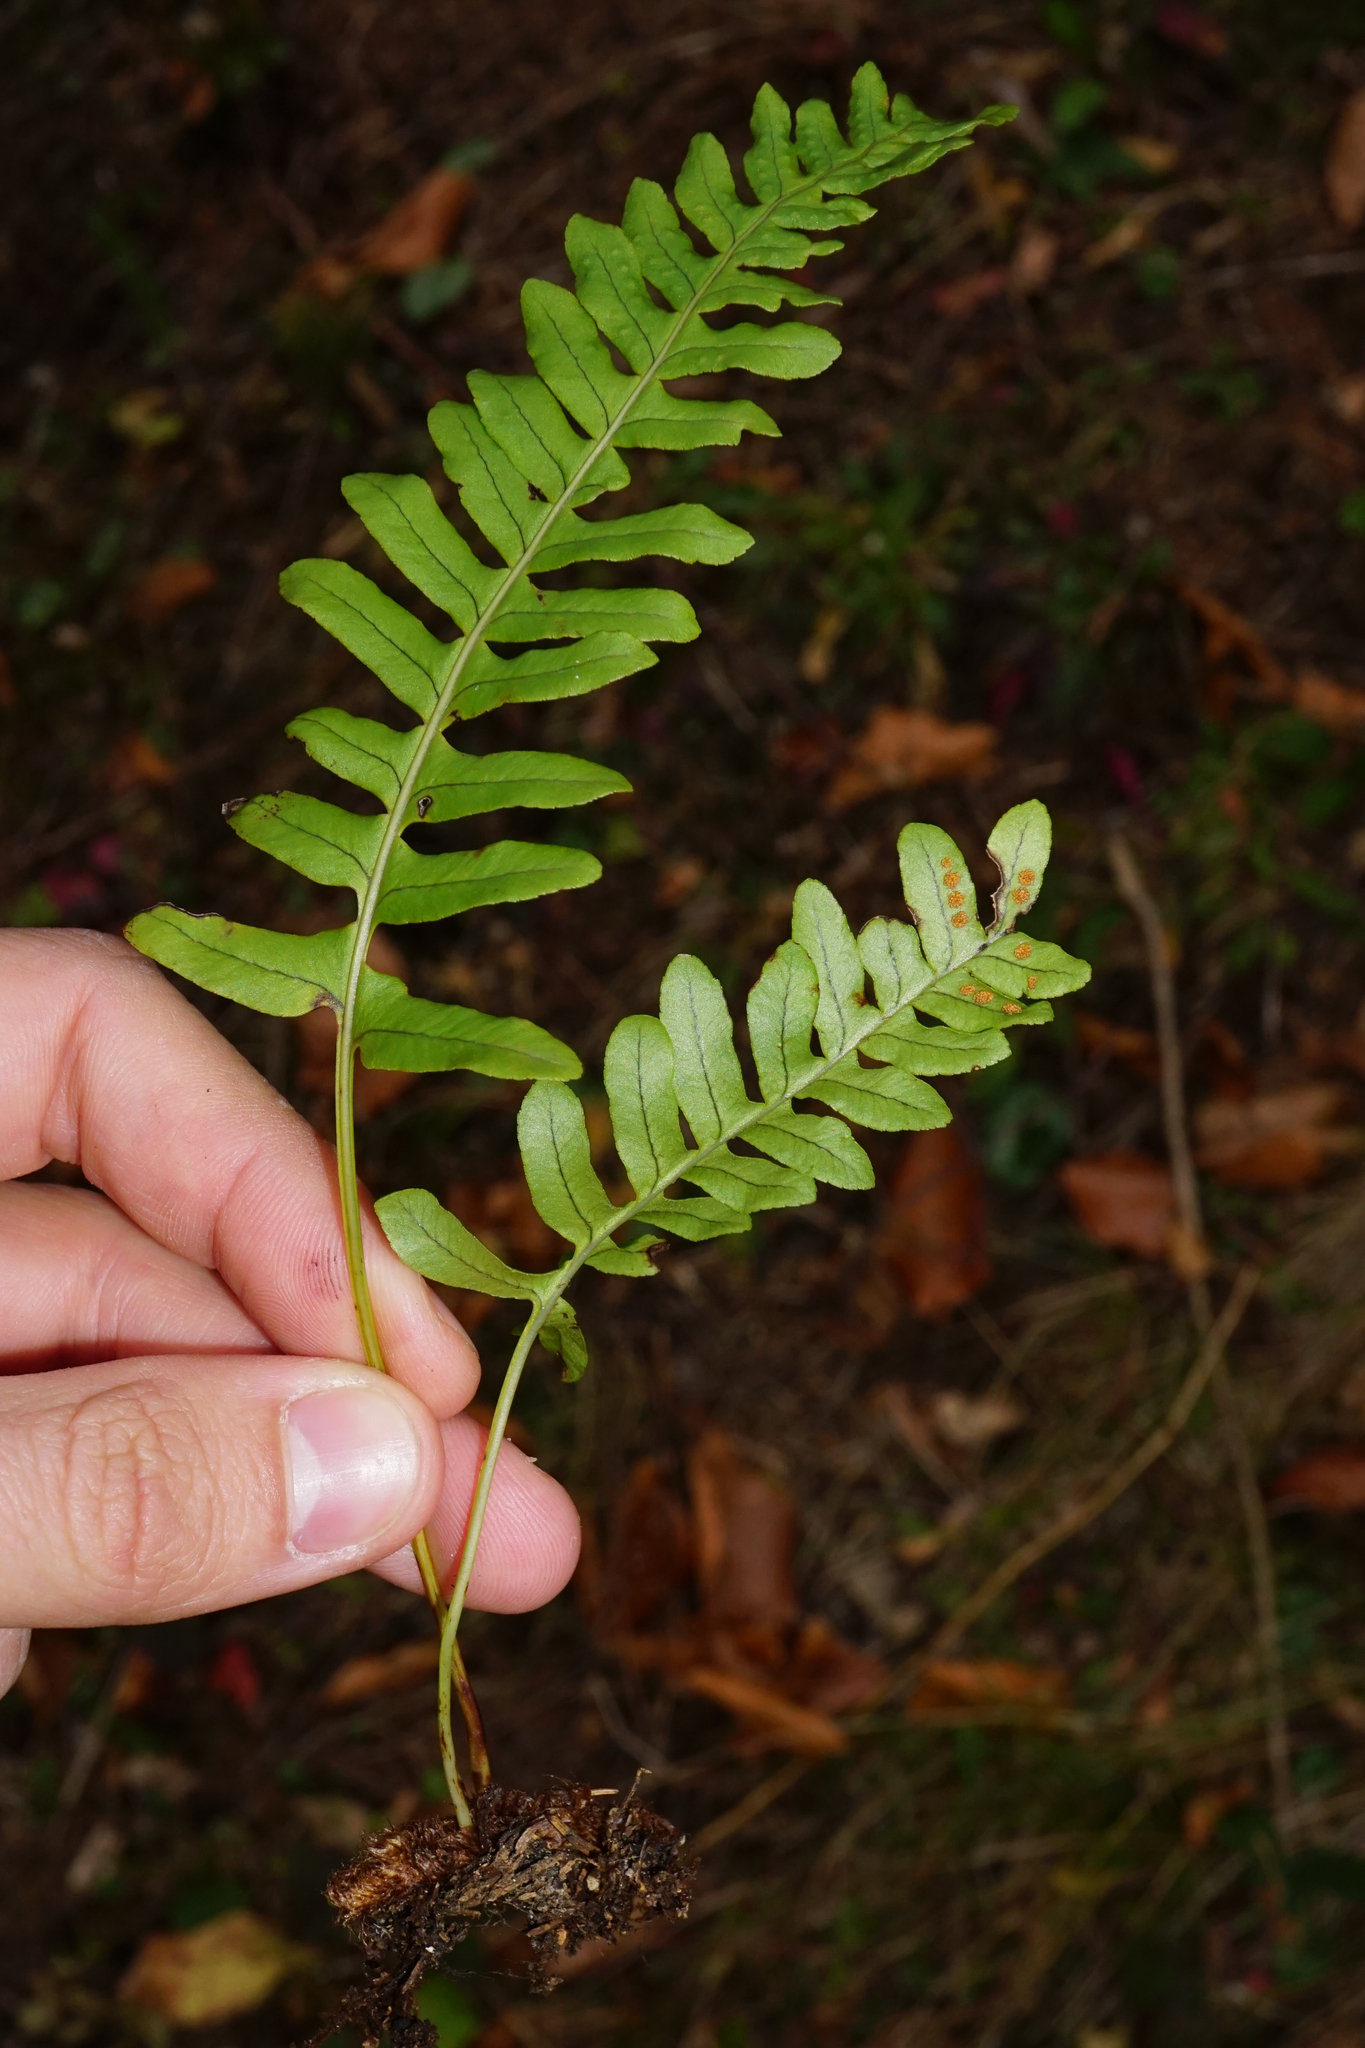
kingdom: Plantae
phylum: Tracheophyta
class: Polypodiopsida
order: Polypodiales
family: Polypodiaceae
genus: Polypodium
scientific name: Polypodium vulgare
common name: Common polypody
